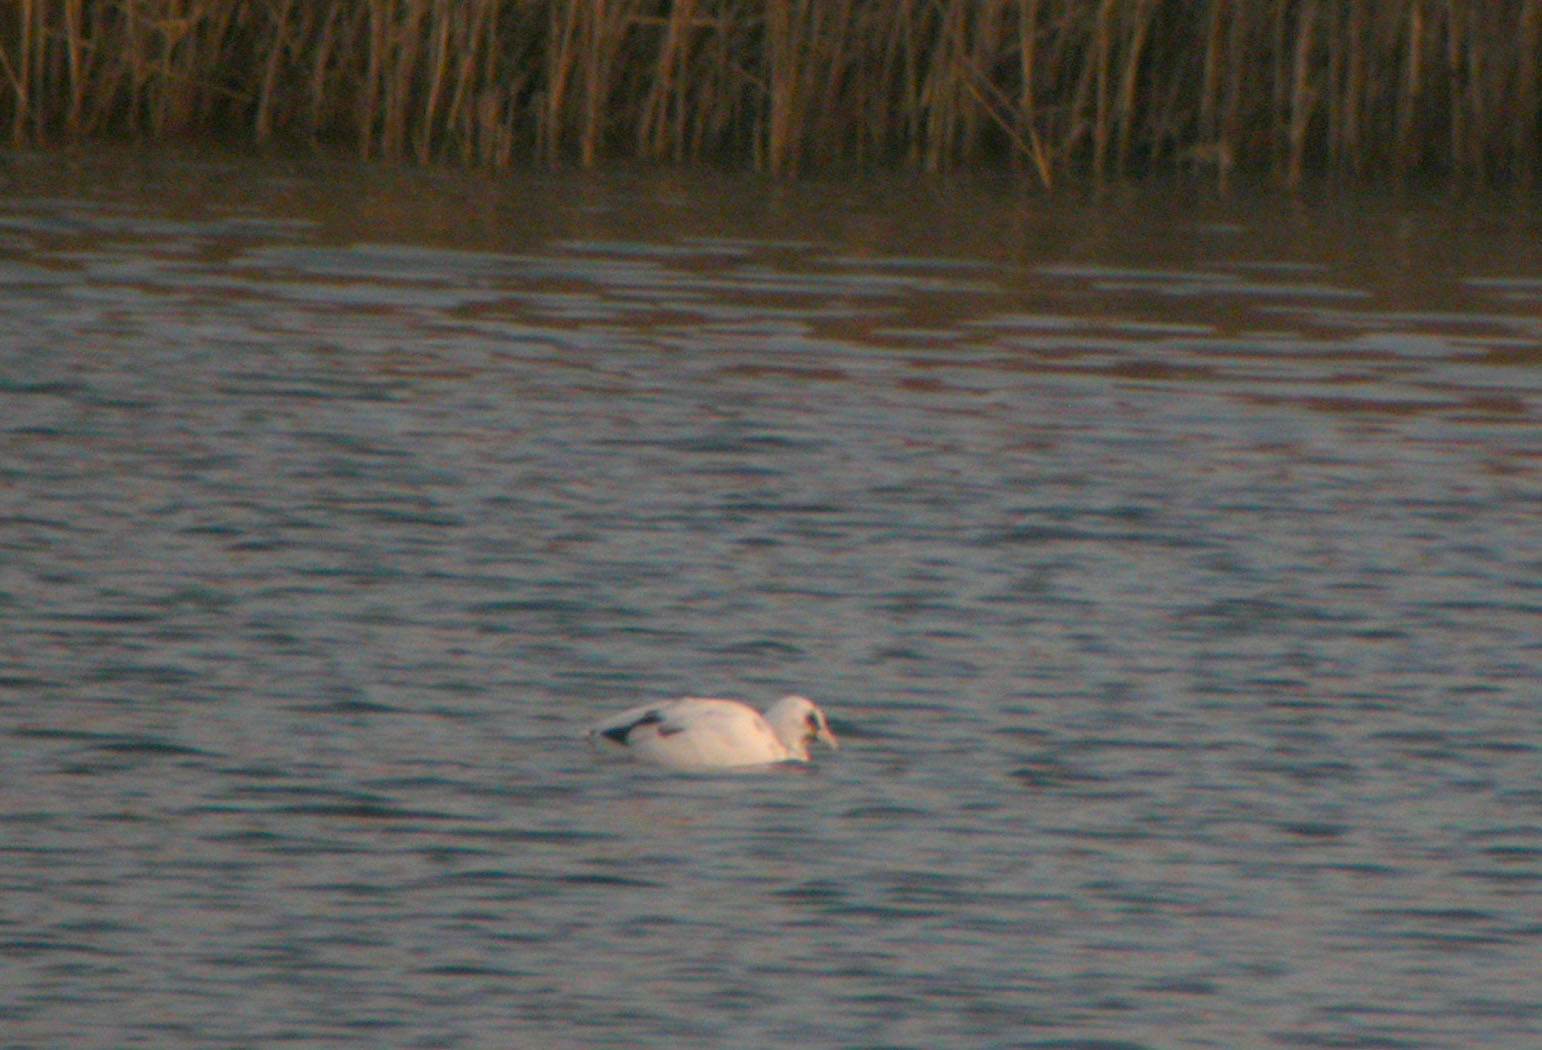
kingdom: Animalia
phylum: Chordata
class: Aves
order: Gruiformes
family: Rallidae
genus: Fulica
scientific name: Fulica atra
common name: Eurasian coot
